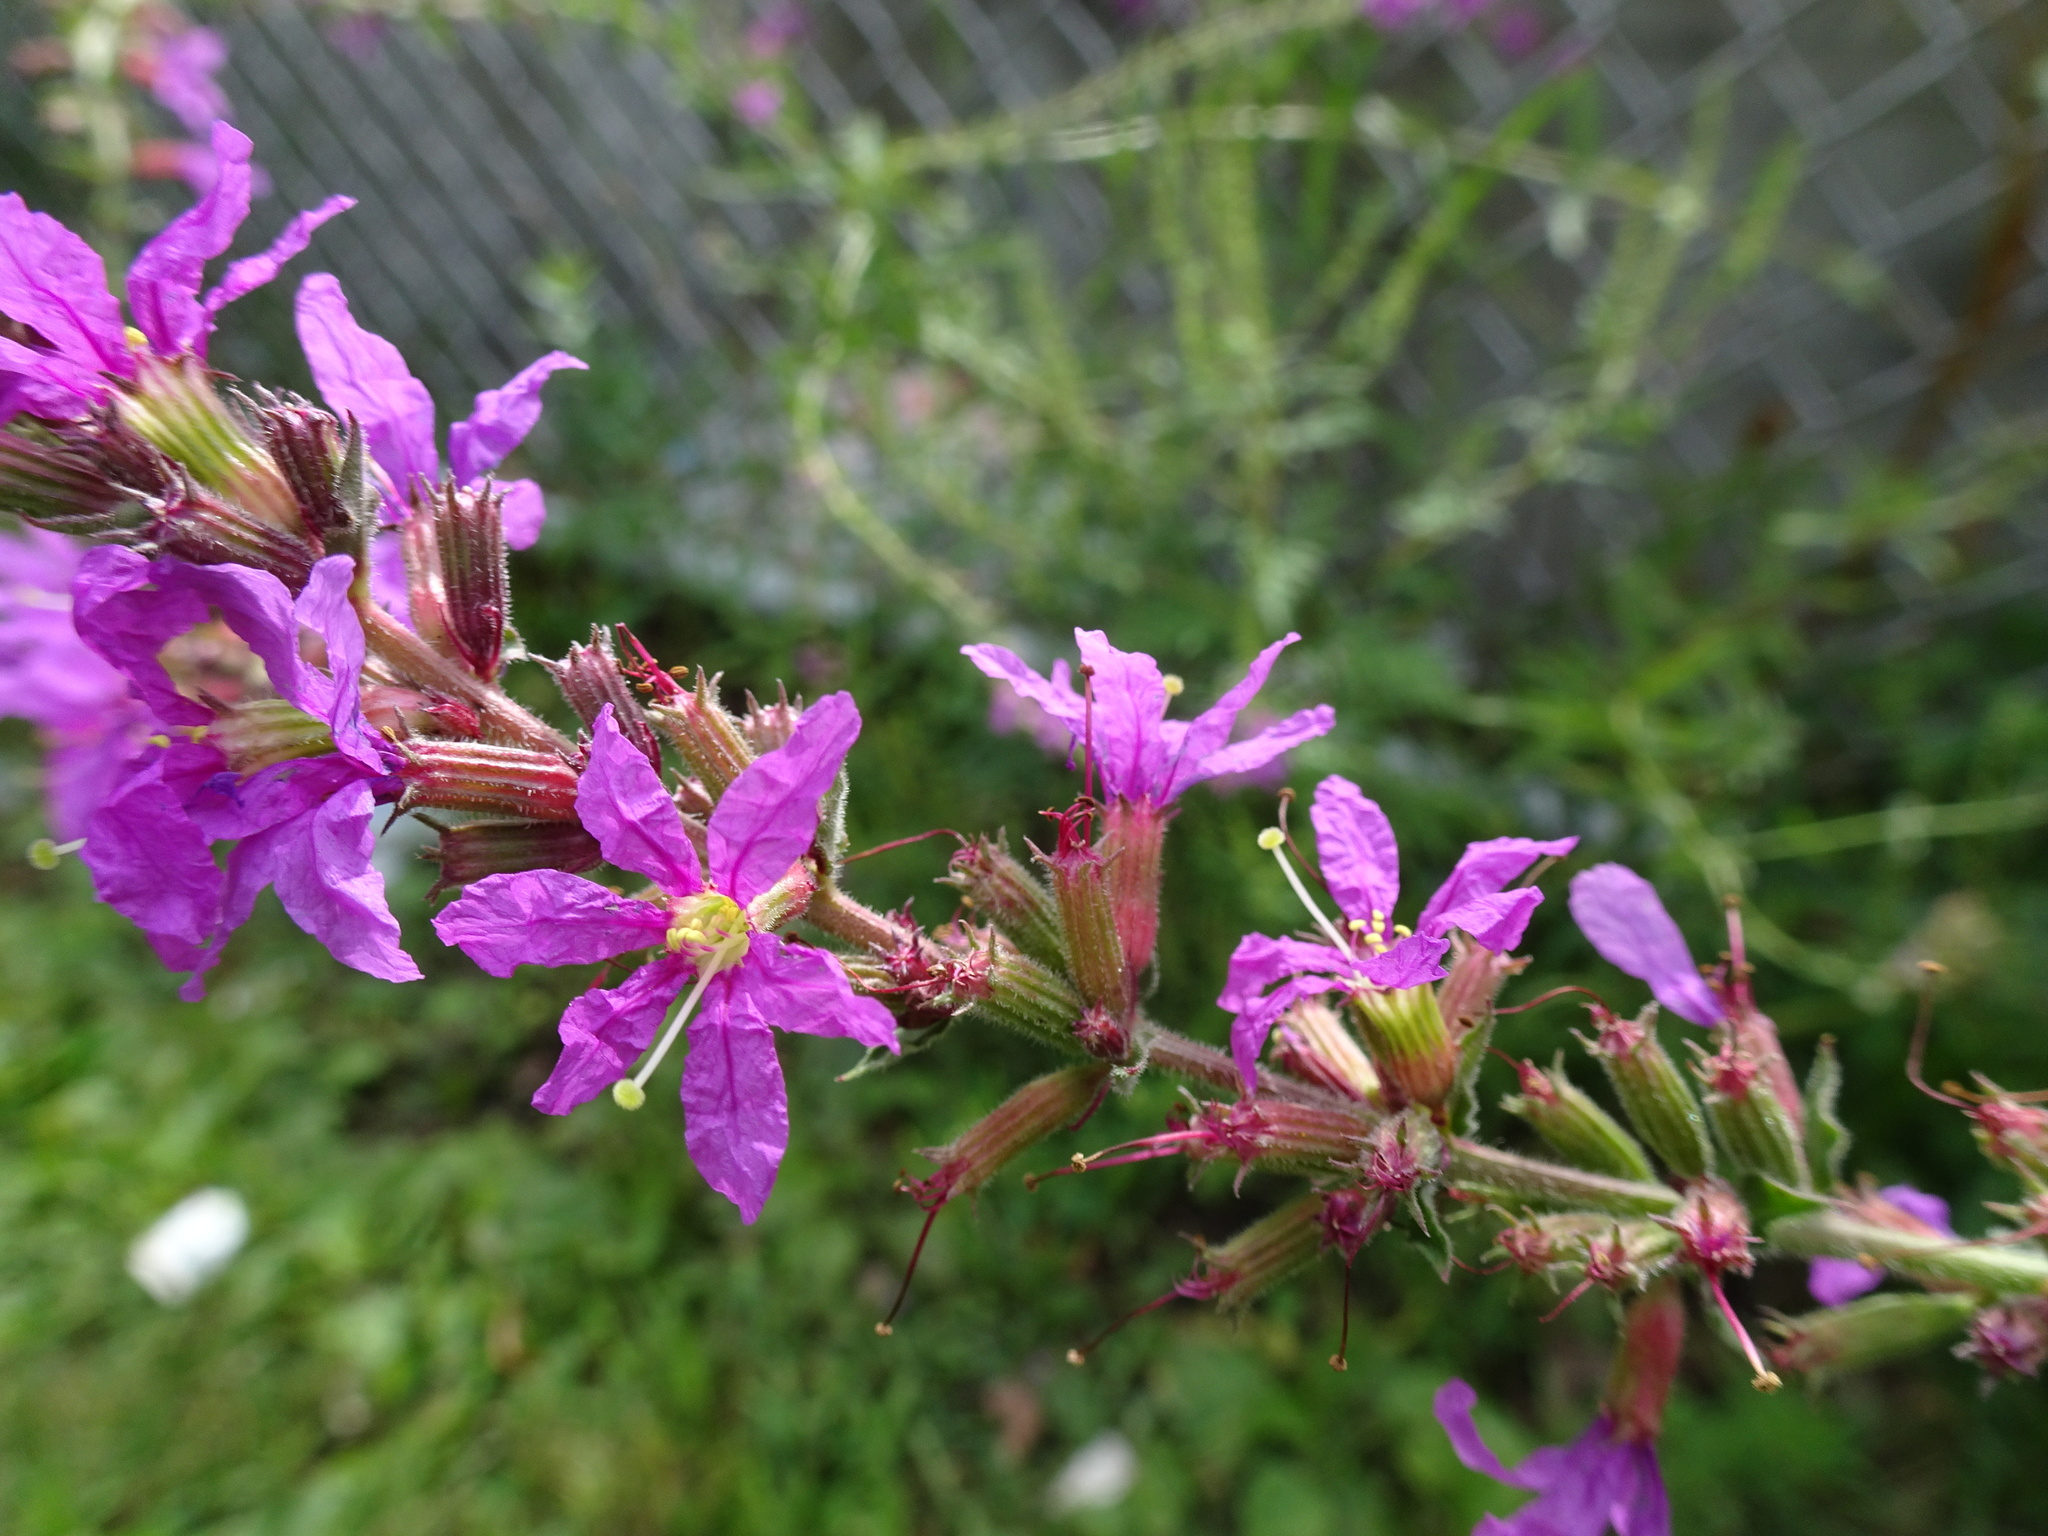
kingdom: Plantae
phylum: Tracheophyta
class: Magnoliopsida
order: Myrtales
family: Lythraceae
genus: Lythrum
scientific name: Lythrum salicaria
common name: Purple loosestrife
